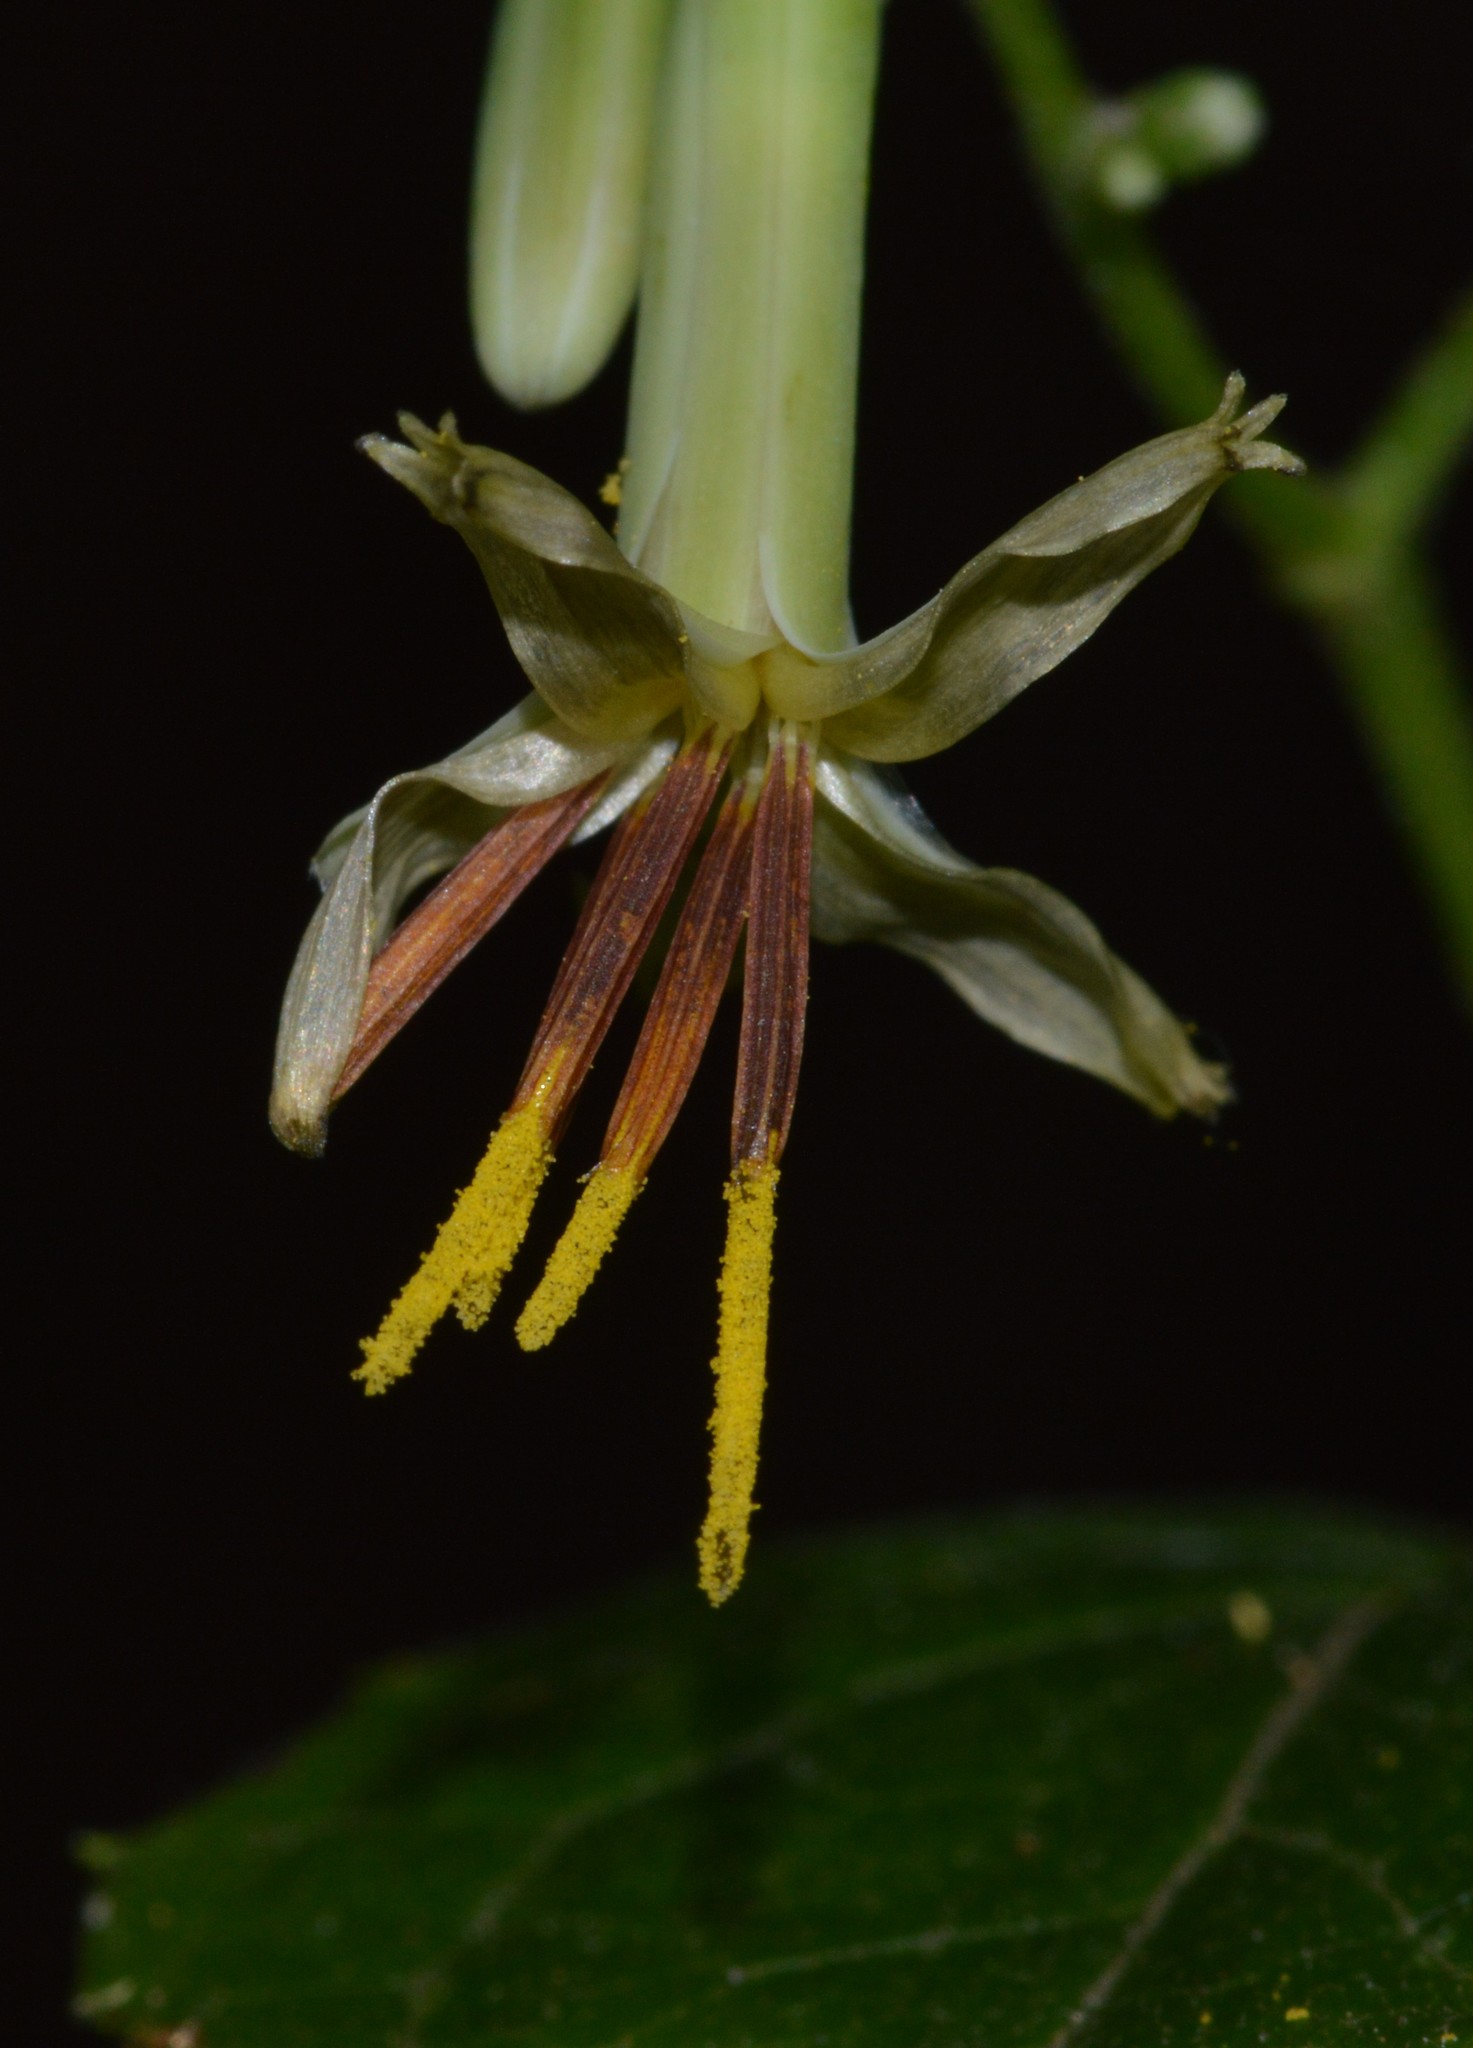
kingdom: Plantae
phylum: Tracheophyta
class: Magnoliopsida
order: Asterales
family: Asteraceae
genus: Nabalus
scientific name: Nabalus altissima
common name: Tall rattlesnakeroot
